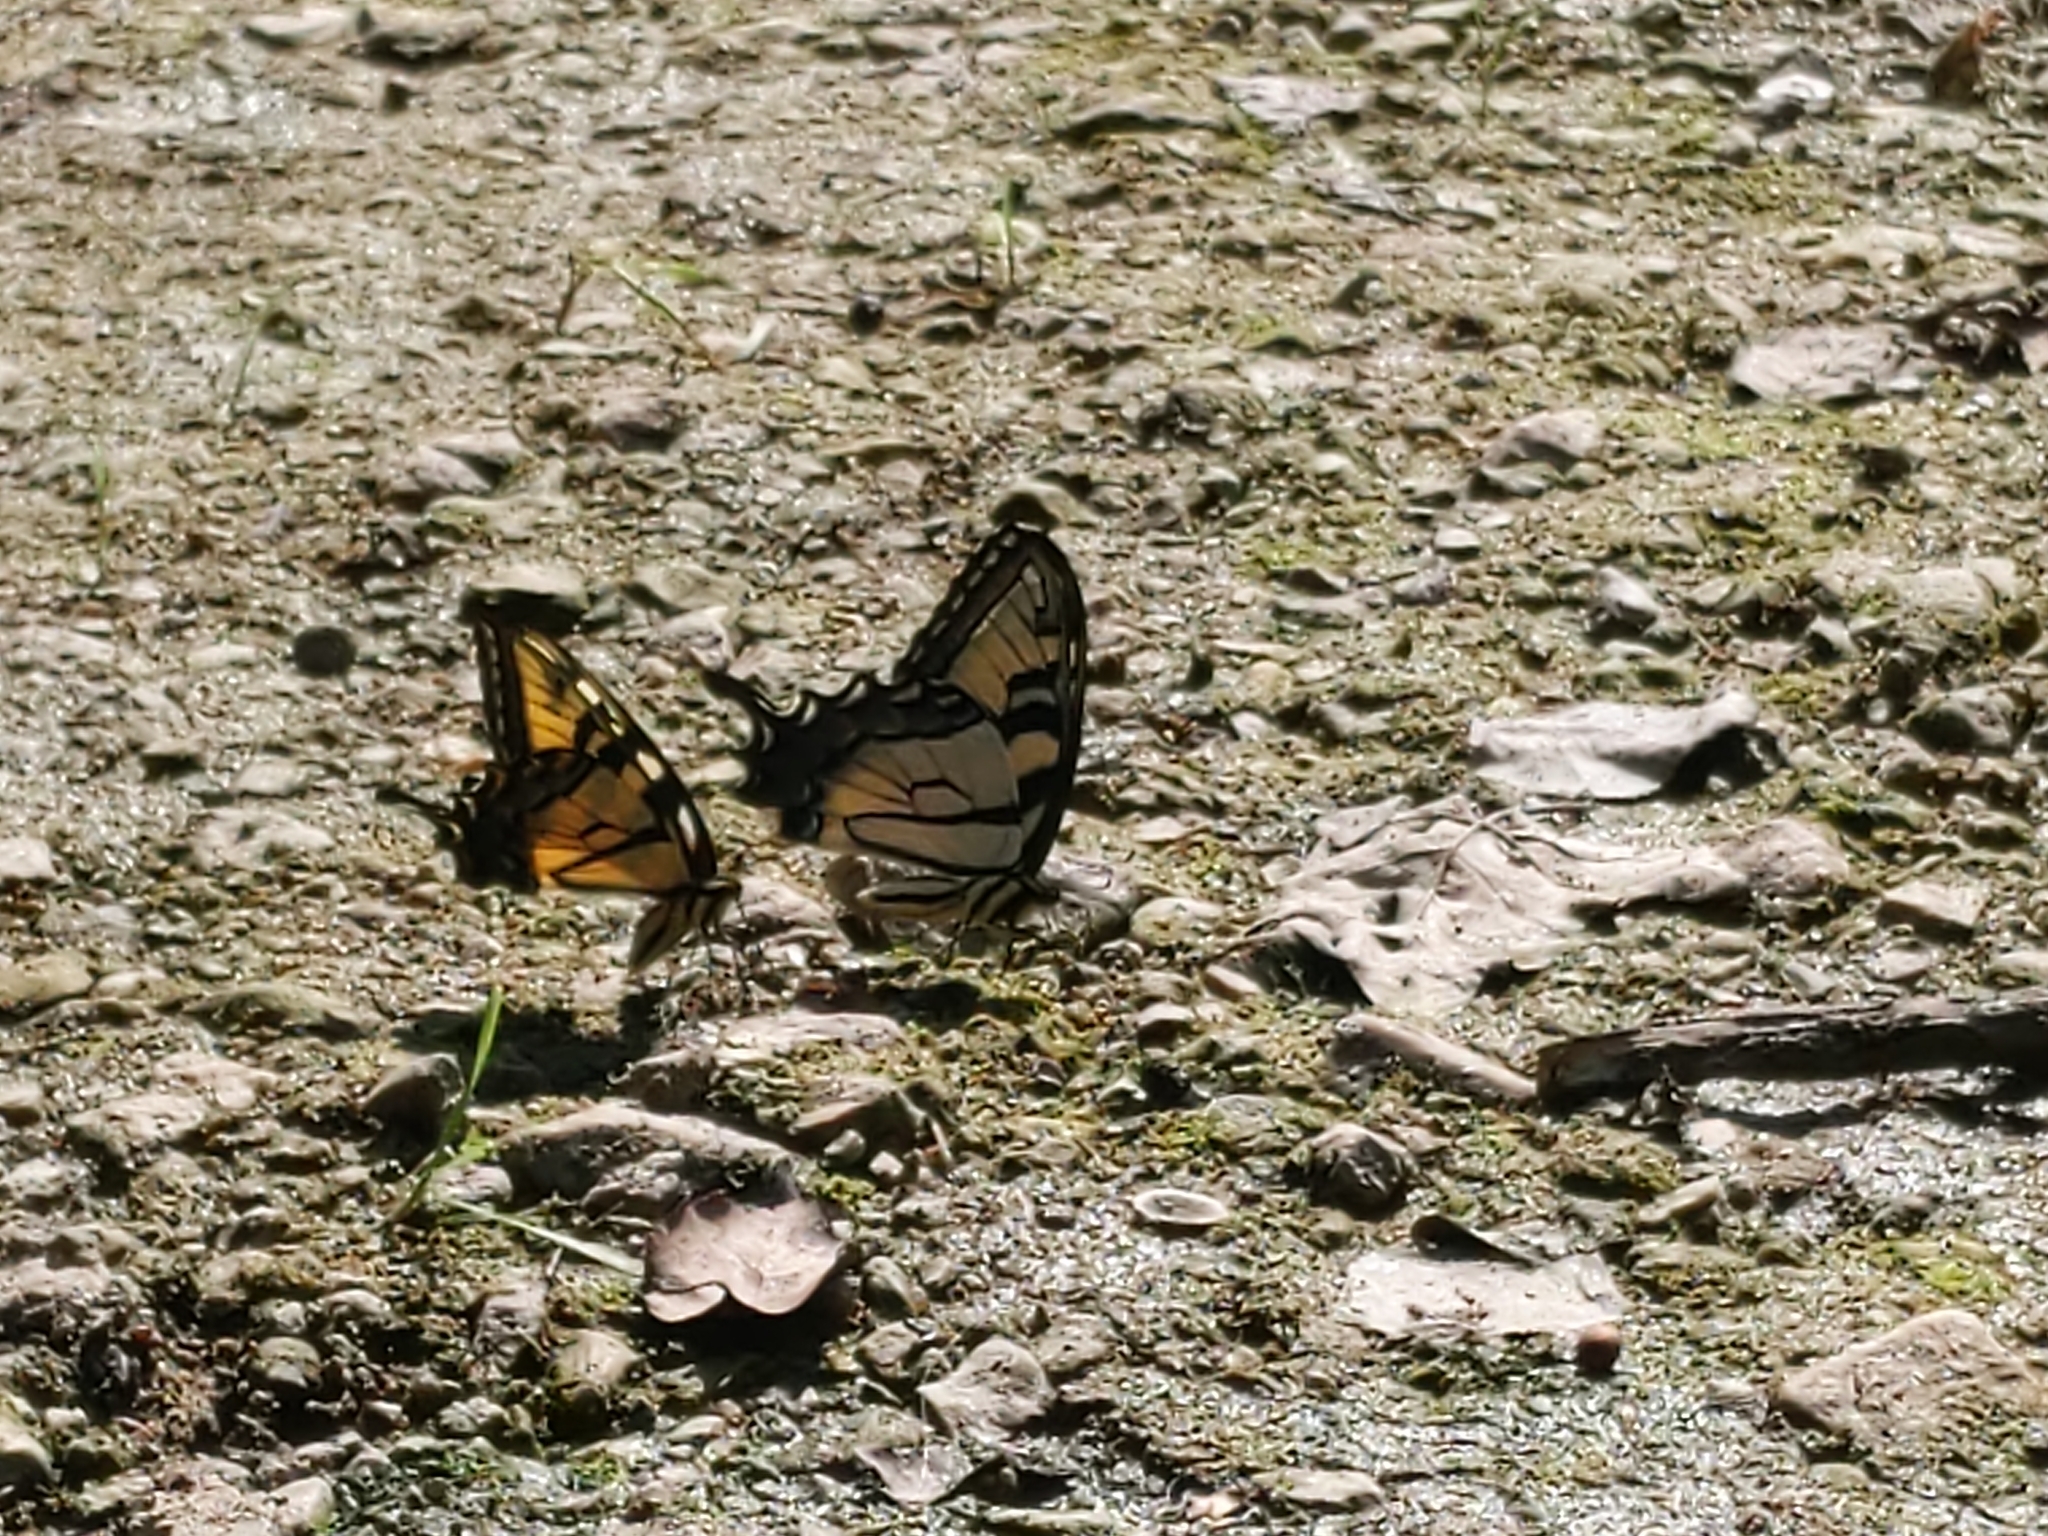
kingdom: Animalia
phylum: Arthropoda
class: Insecta
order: Lepidoptera
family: Papilionidae
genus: Papilio
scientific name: Papilio glaucus
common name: Tiger swallowtail
